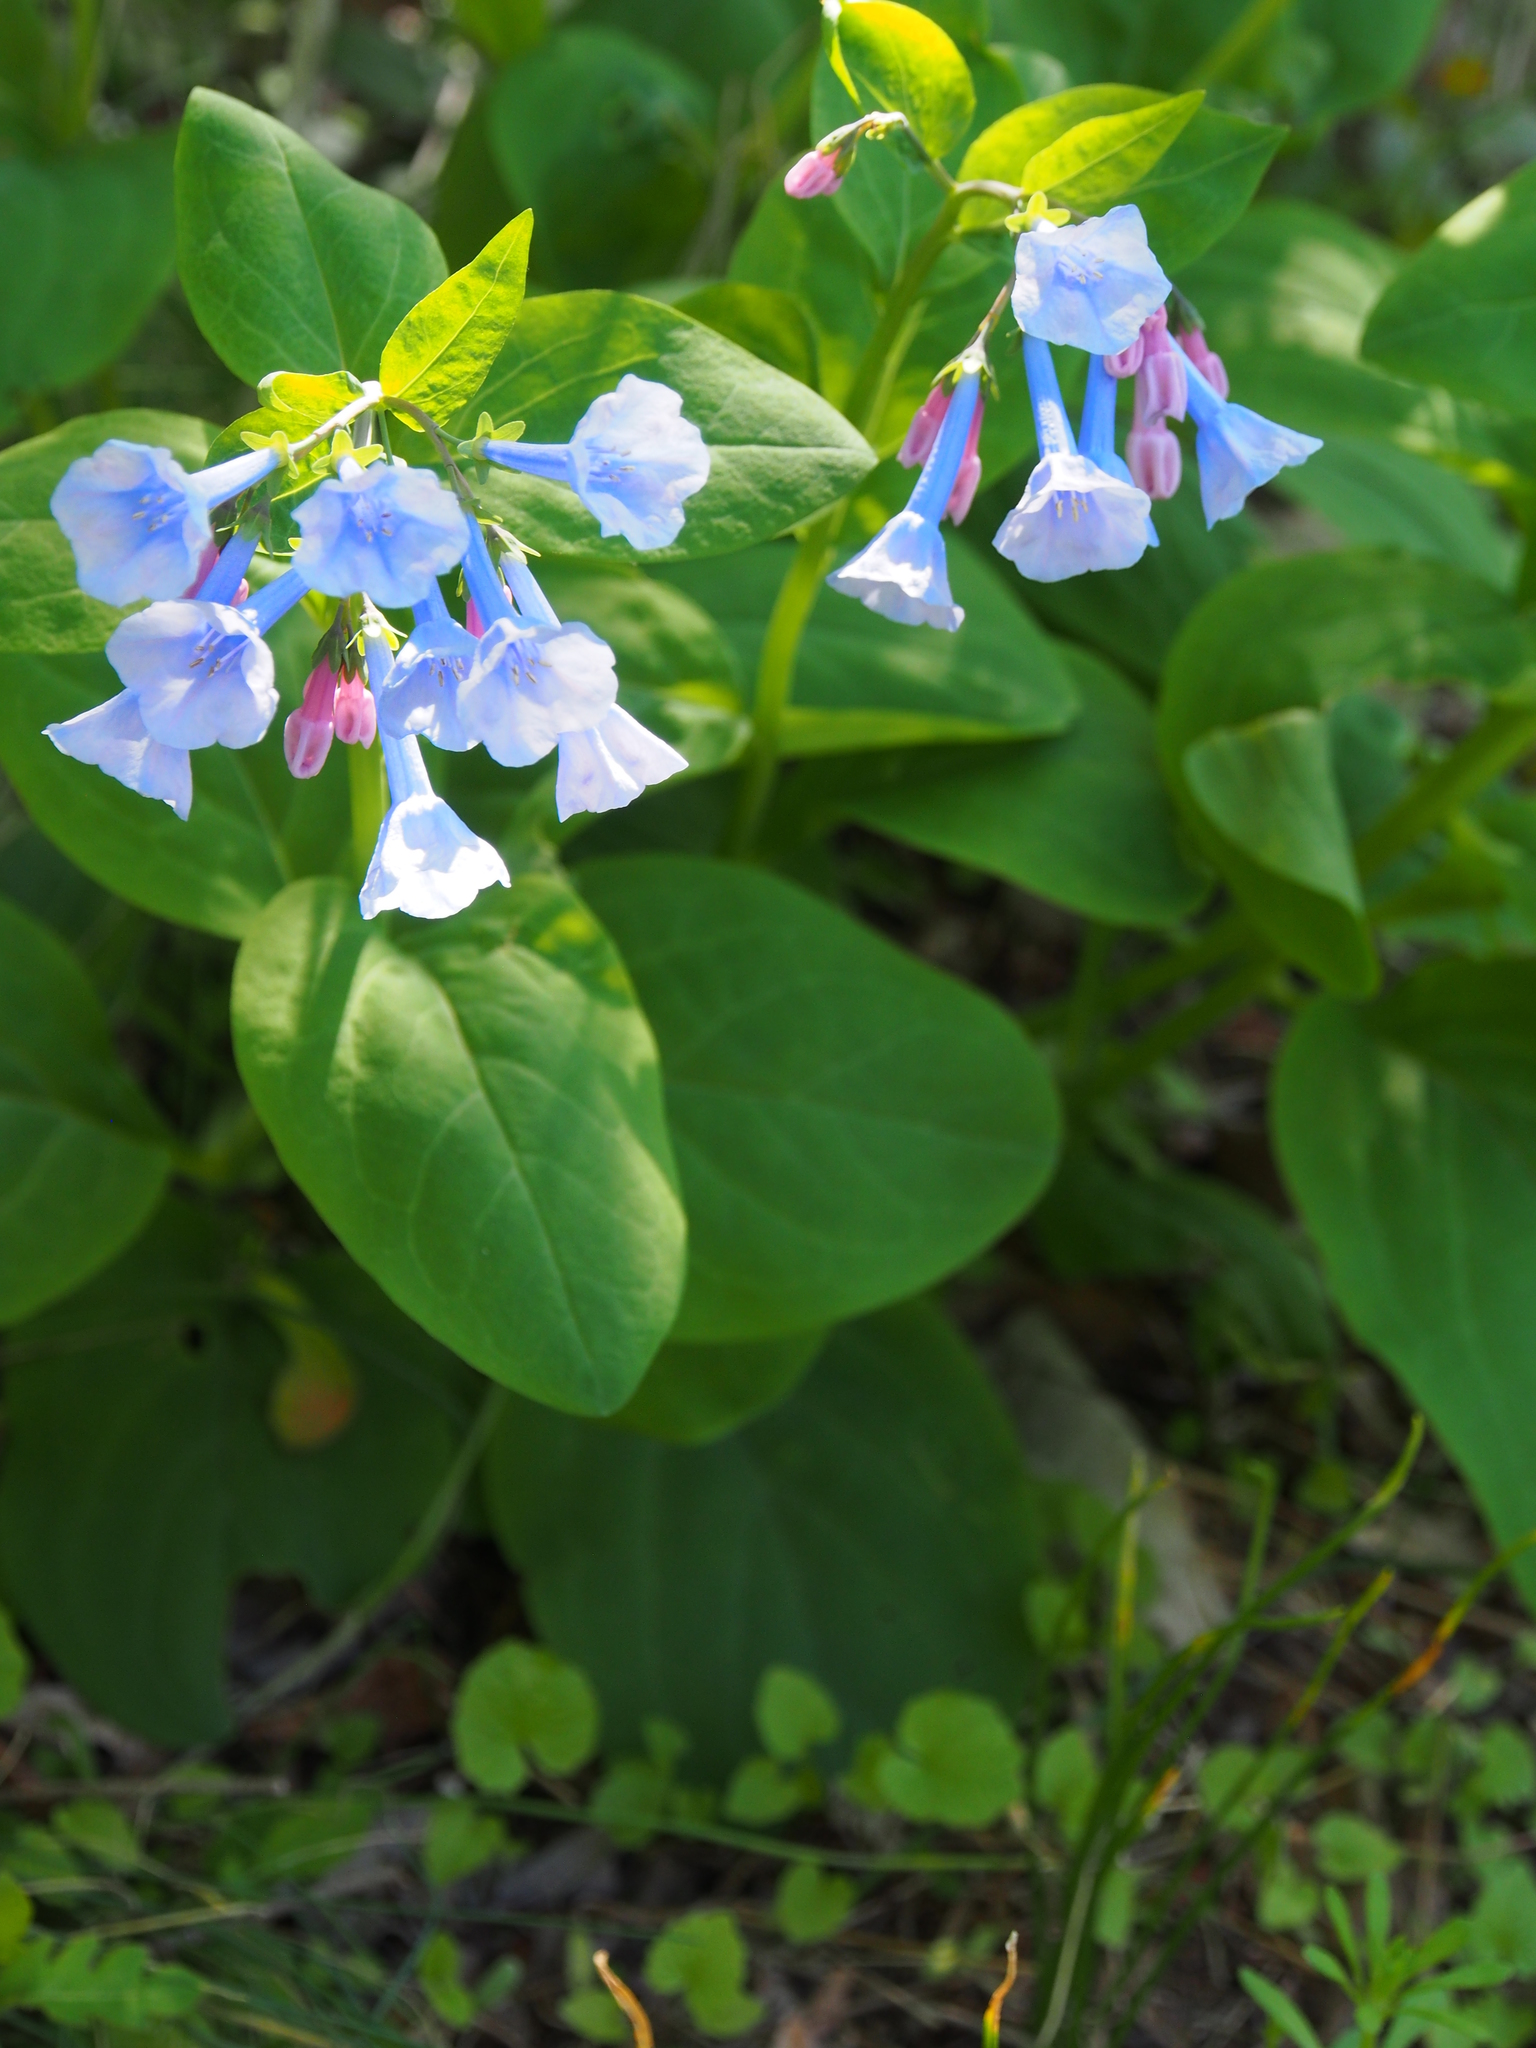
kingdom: Plantae
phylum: Tracheophyta
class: Magnoliopsida
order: Boraginales
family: Boraginaceae
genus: Mertensia
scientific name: Mertensia virginica
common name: Virginia bluebells
